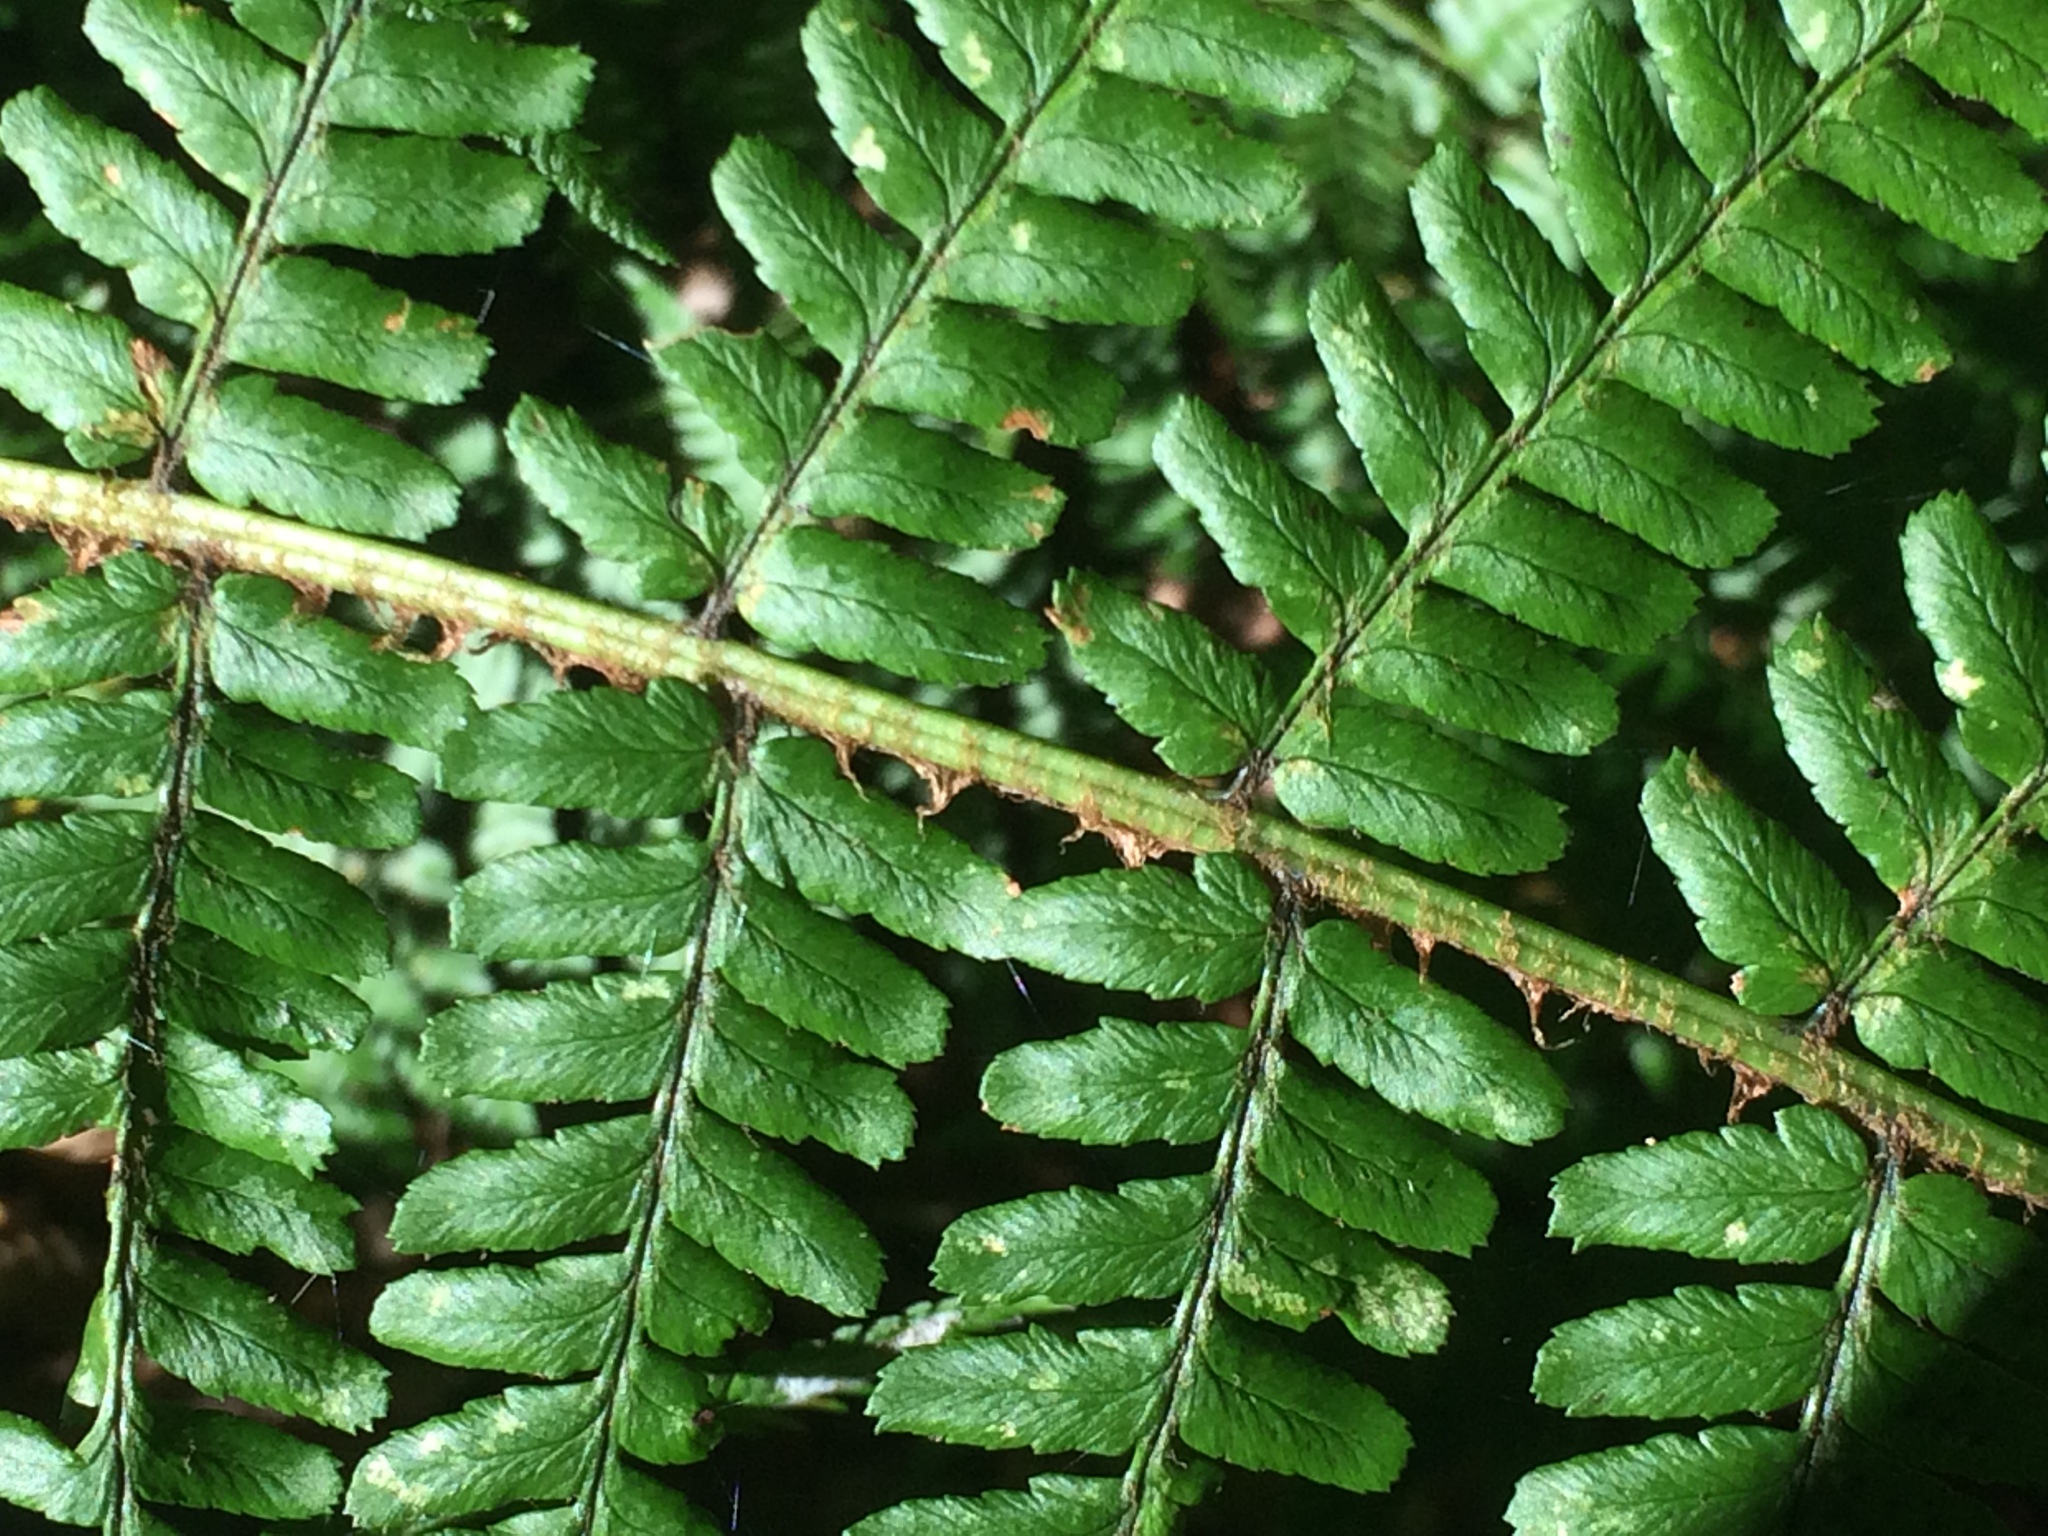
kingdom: Plantae
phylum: Tracheophyta
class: Polypodiopsida
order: Polypodiales
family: Dryopteridaceae
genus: Dryopteris
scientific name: Dryopteris borreri
